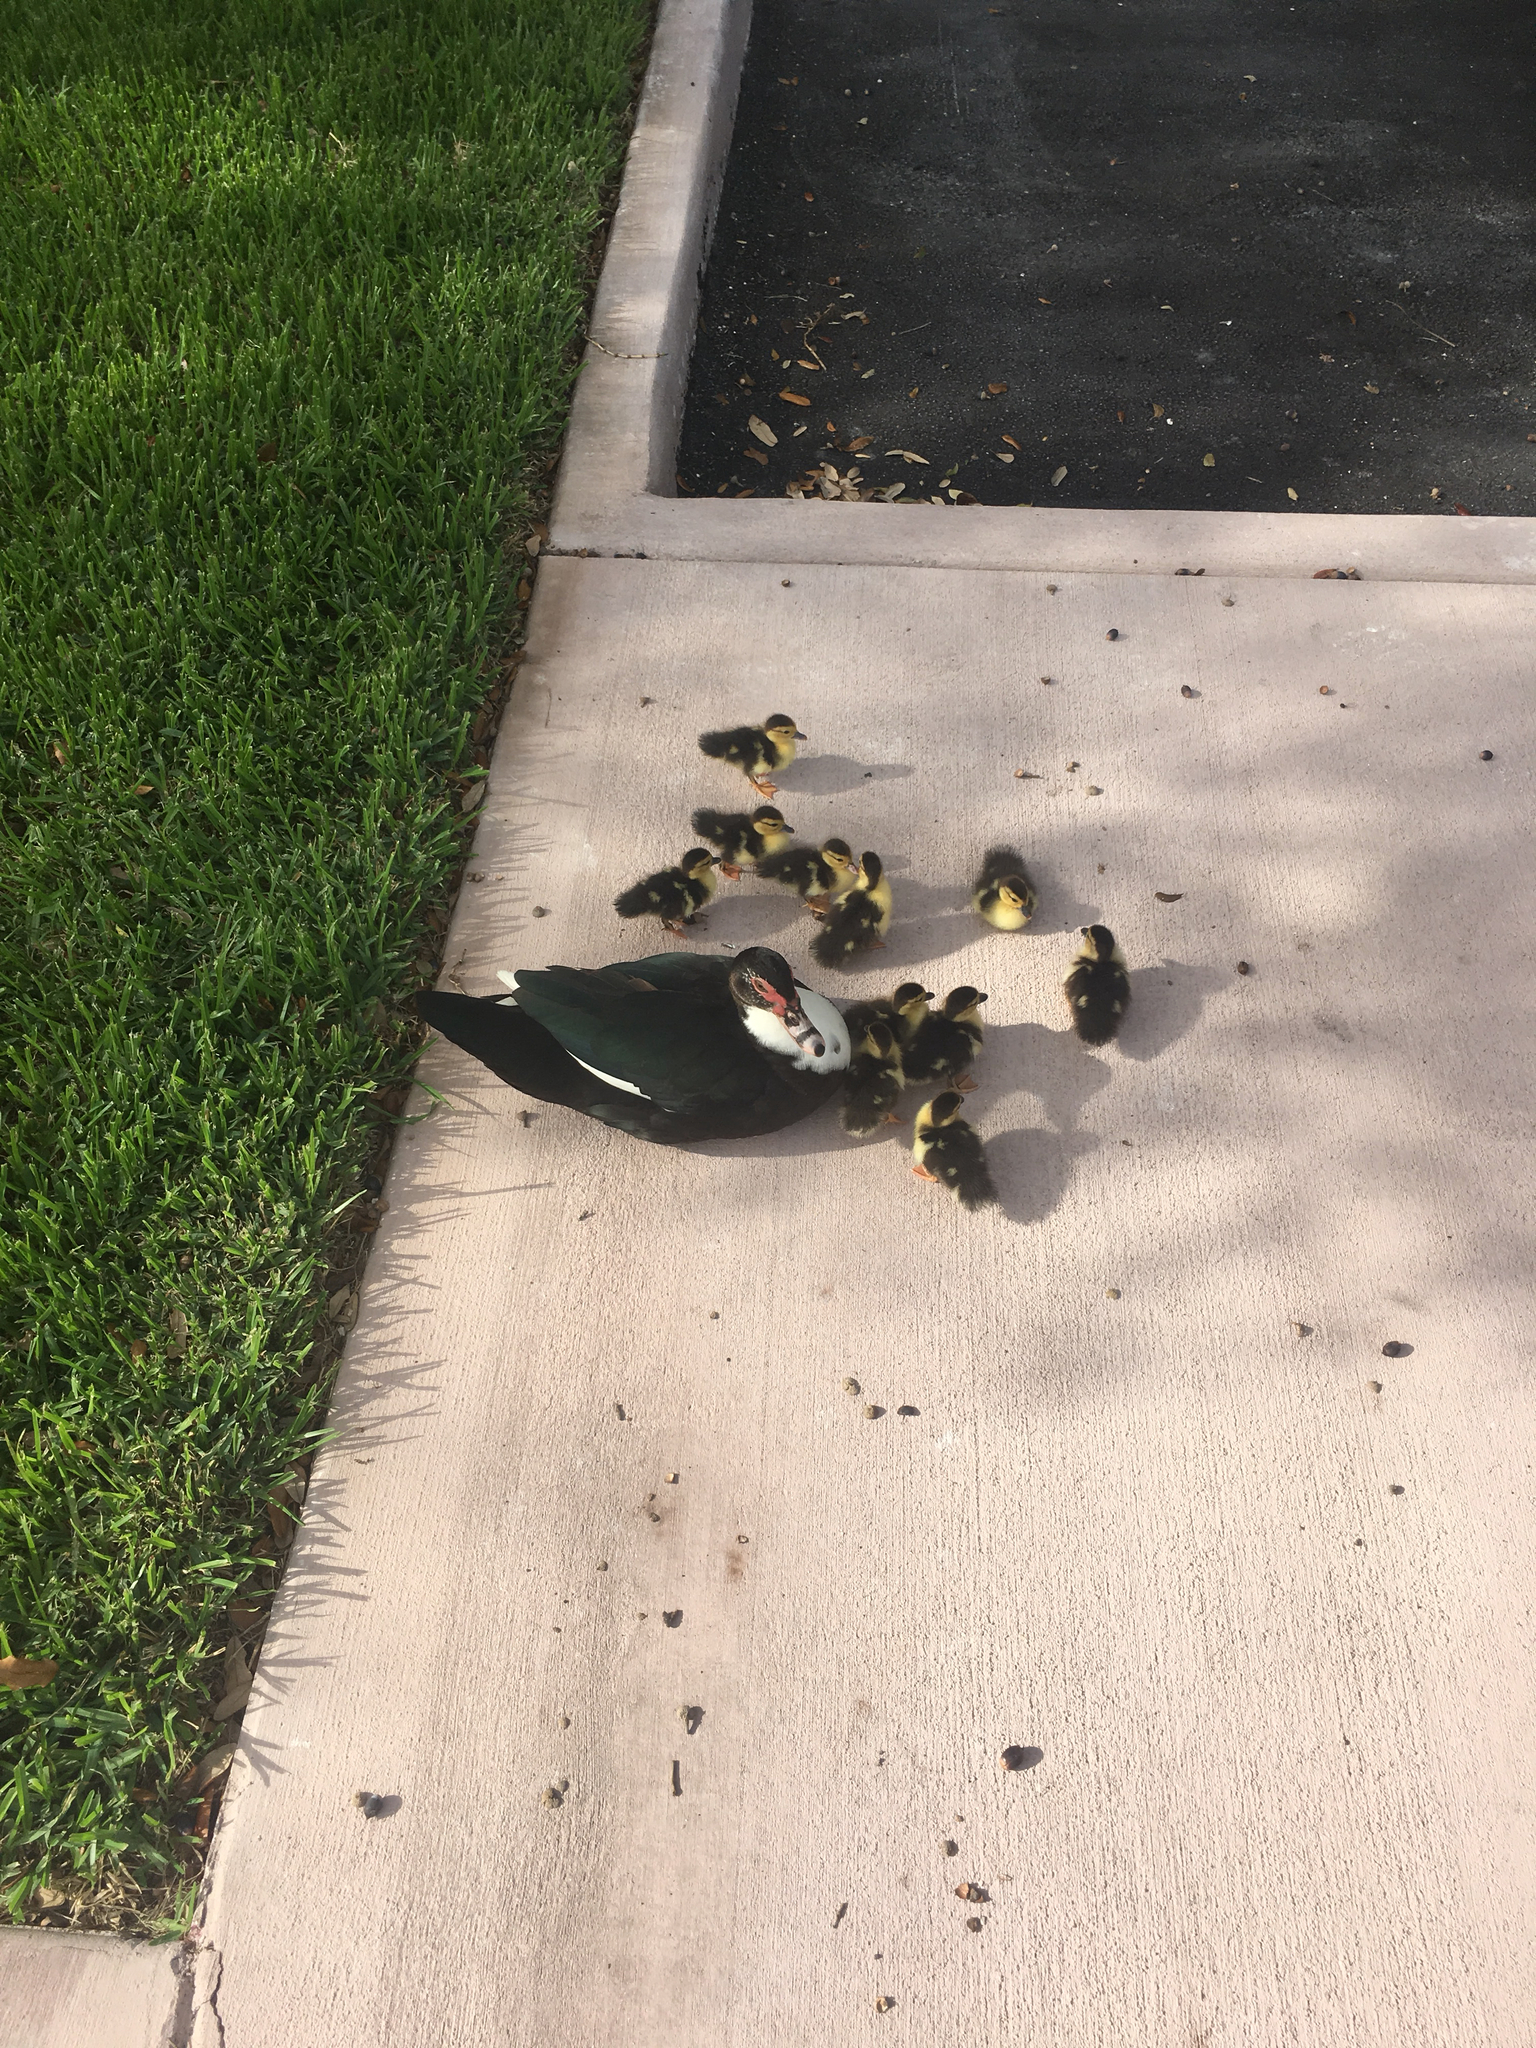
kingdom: Animalia
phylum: Chordata
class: Aves
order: Anseriformes
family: Anatidae
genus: Cairina
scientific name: Cairina moschata
